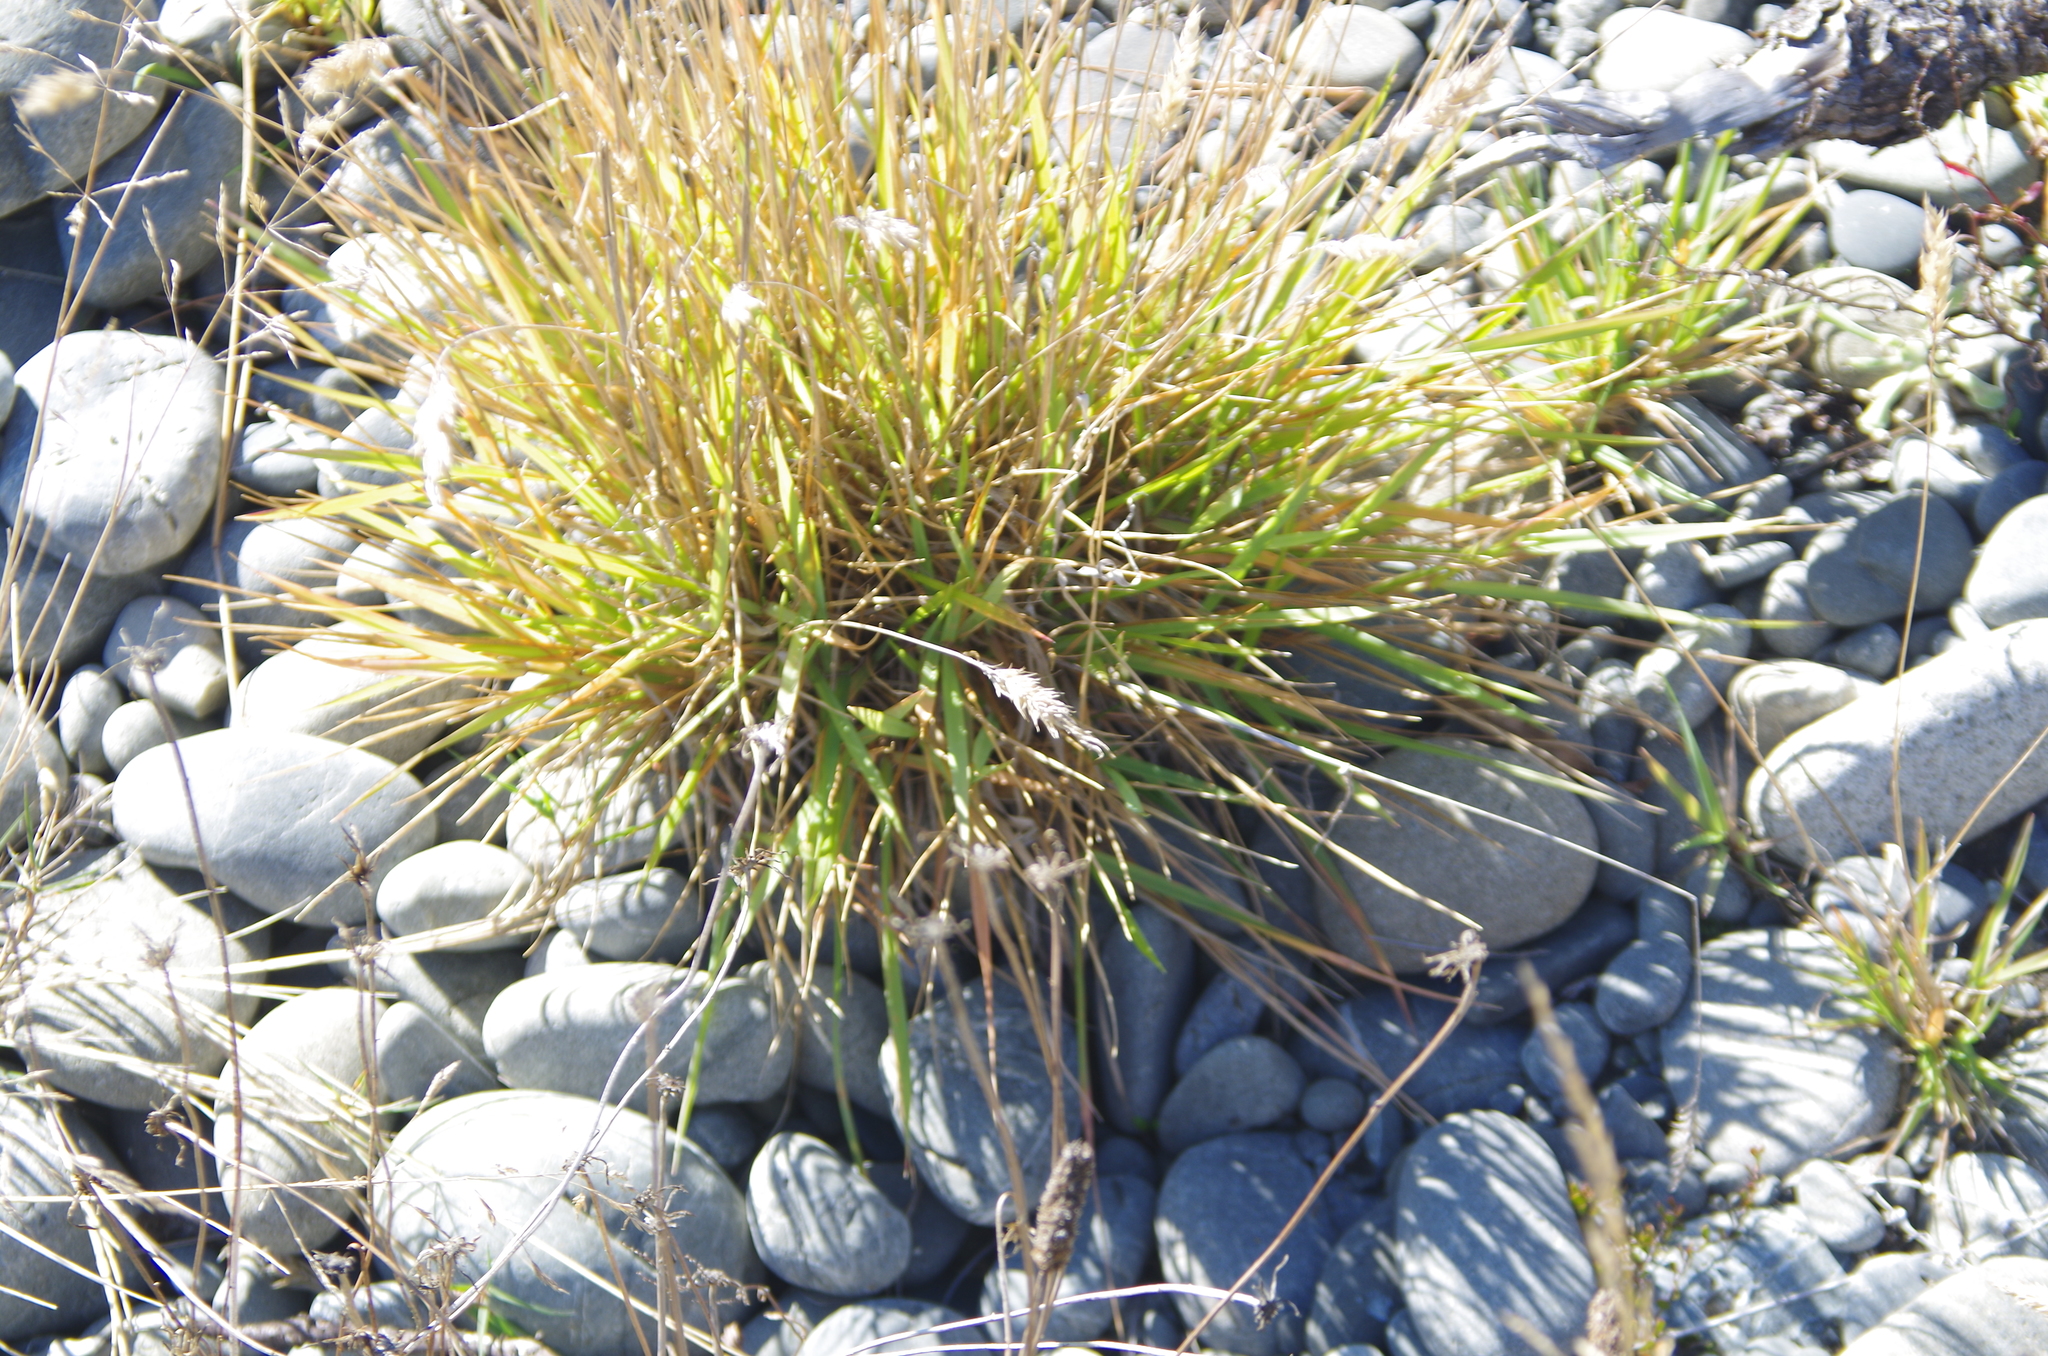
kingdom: Plantae
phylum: Tracheophyta
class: Liliopsida
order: Poales
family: Poaceae
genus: Anthoxanthum
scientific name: Anthoxanthum odoratum
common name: Sweet vernalgrass
